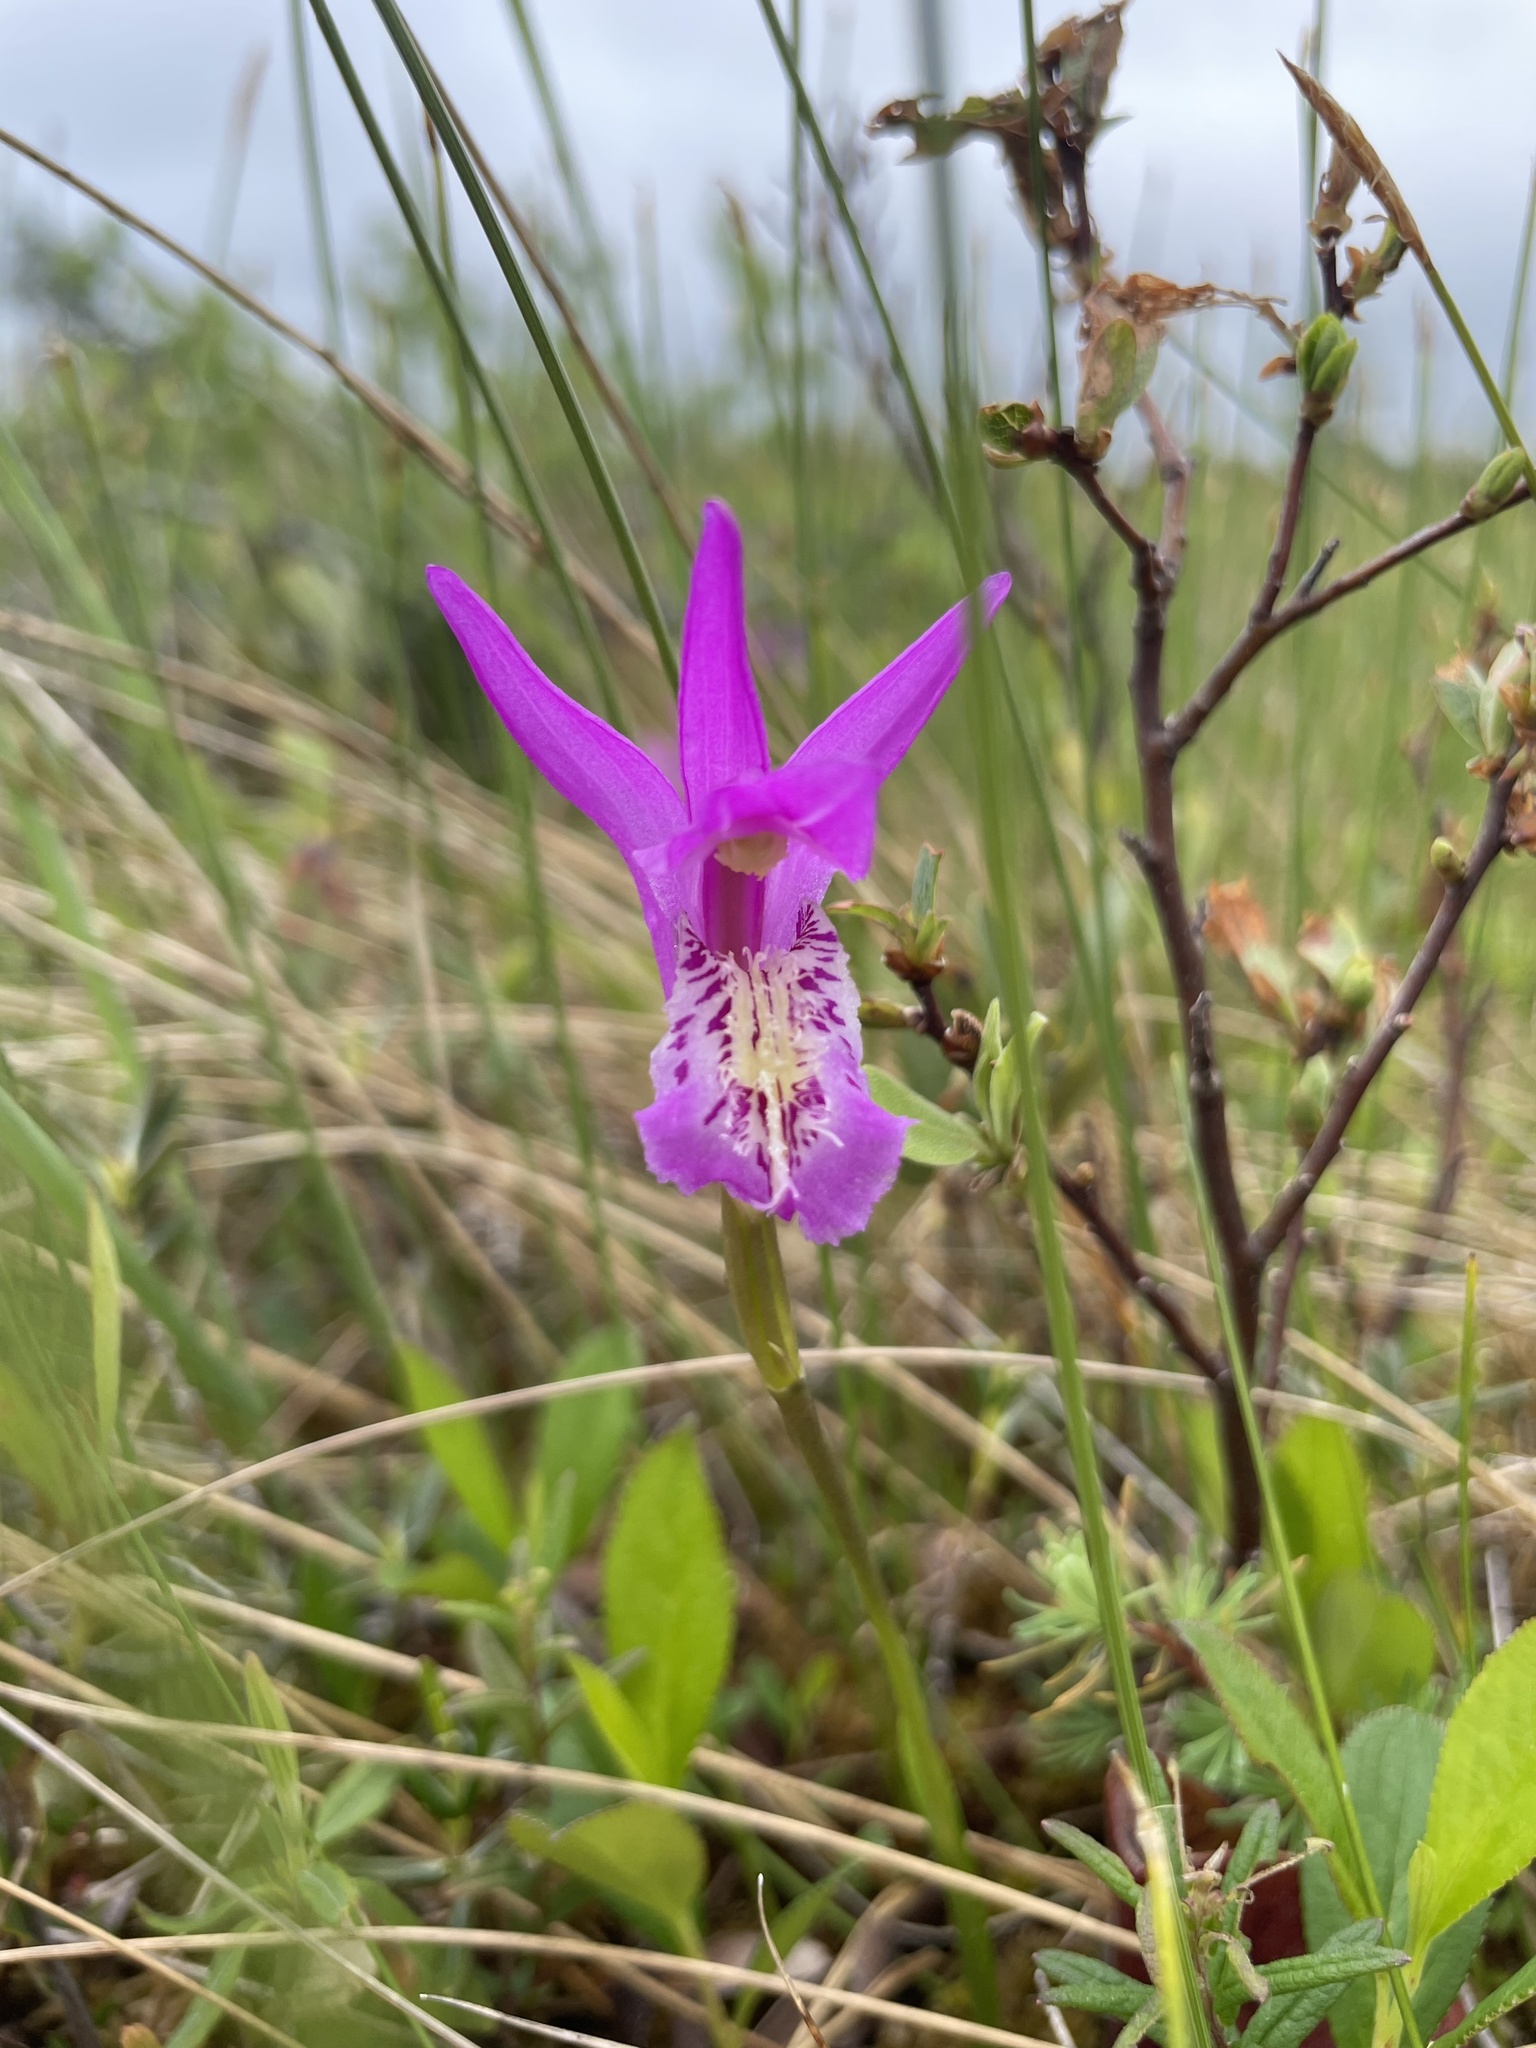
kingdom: Plantae
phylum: Tracheophyta
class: Liliopsida
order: Asparagales
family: Orchidaceae
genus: Arethusa
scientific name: Arethusa bulbosa
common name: Arethusa
